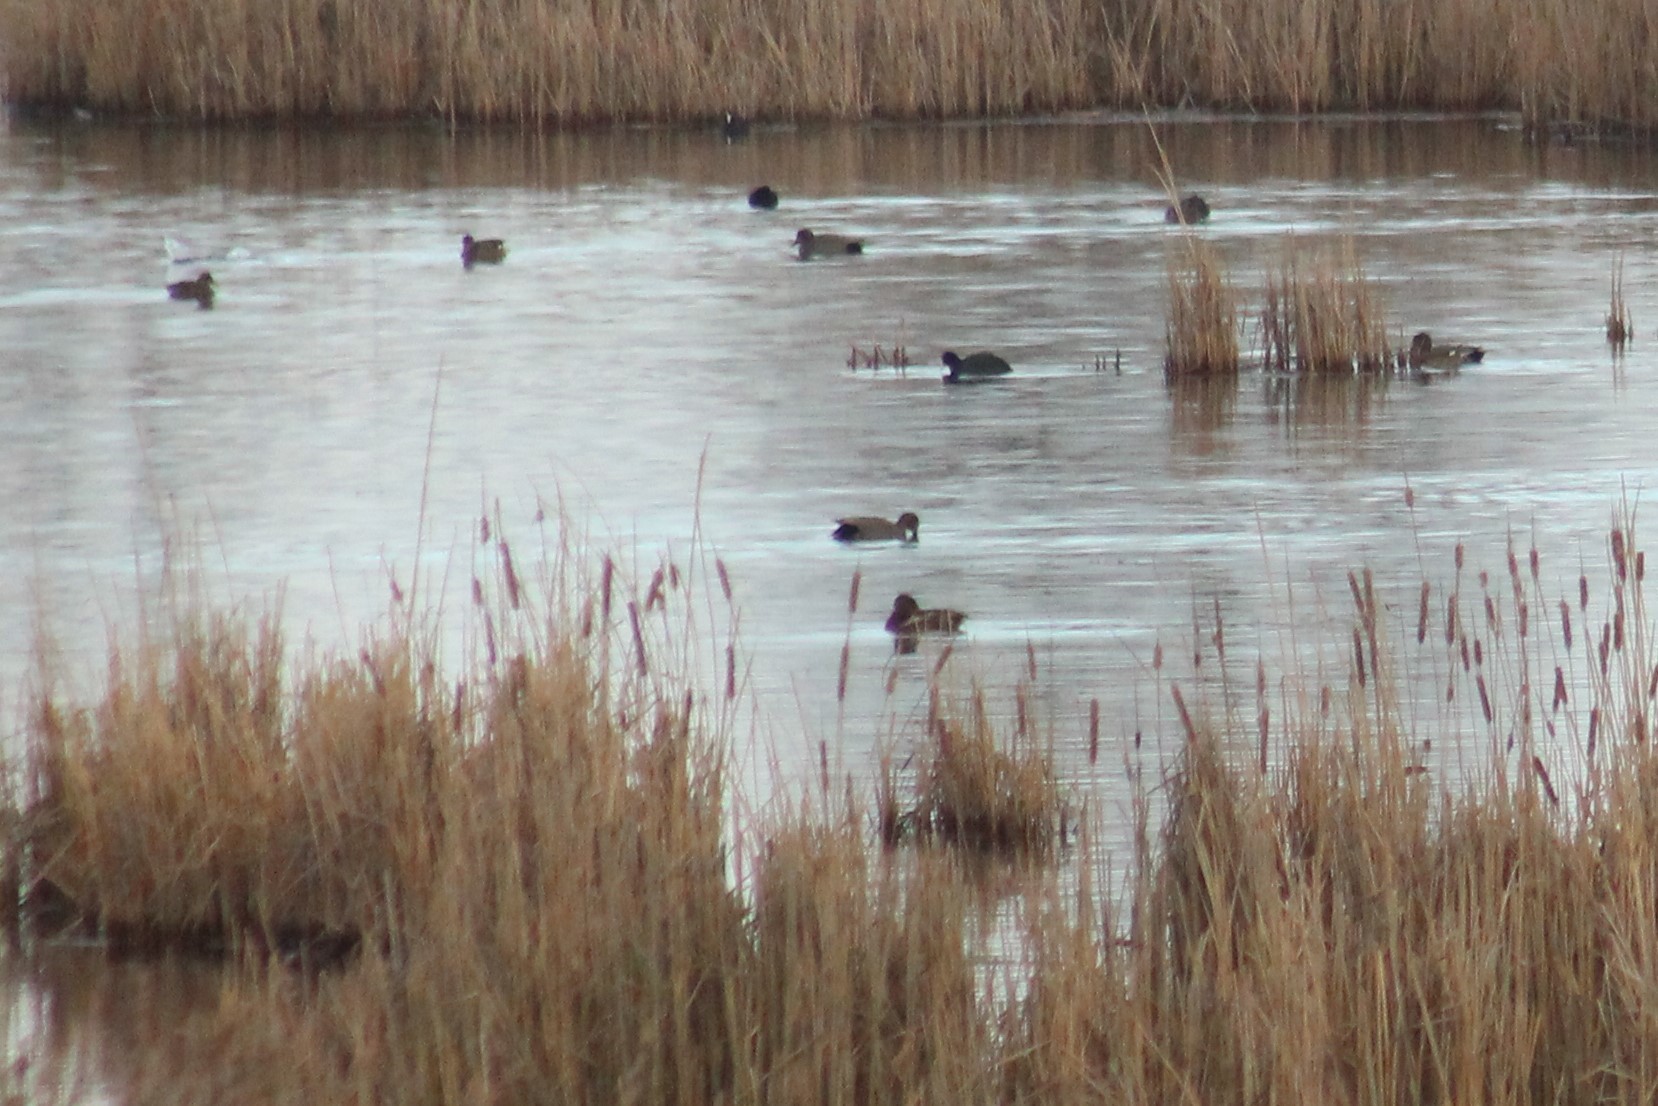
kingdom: Animalia
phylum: Chordata
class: Aves
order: Anseriformes
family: Anatidae
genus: Mareca
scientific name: Mareca strepera
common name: Gadwall
